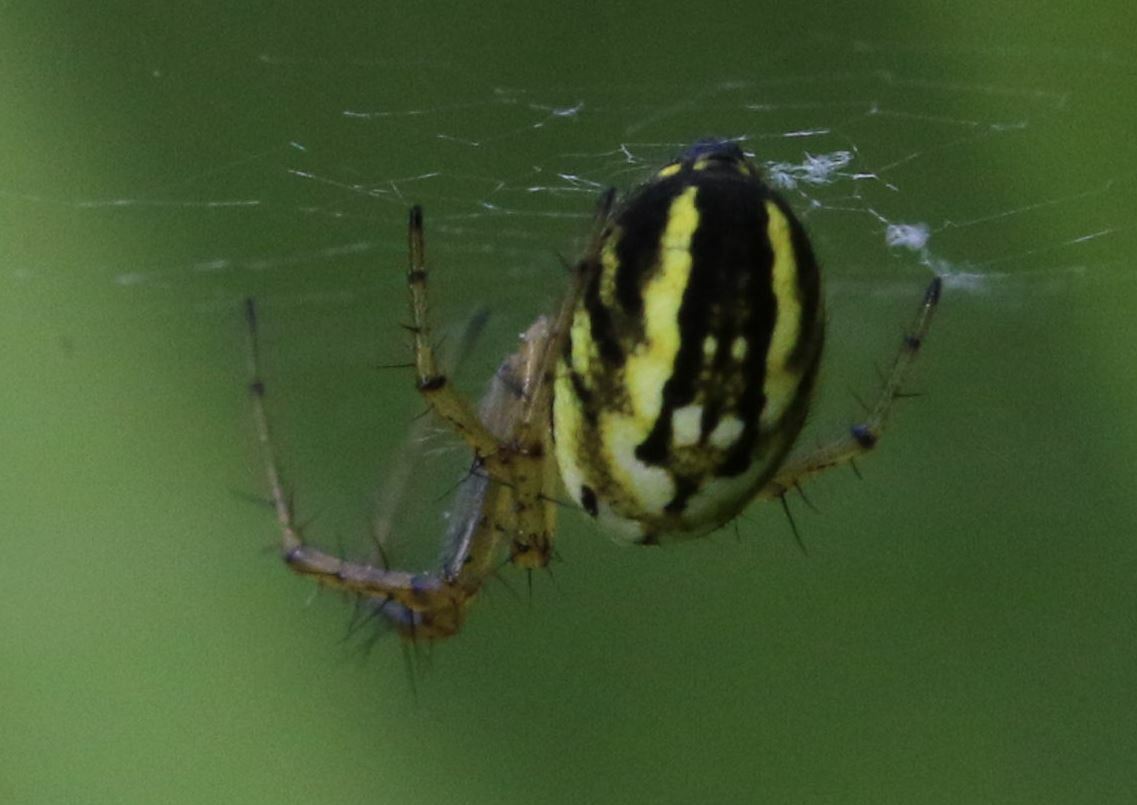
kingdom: Animalia
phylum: Arthropoda
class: Arachnida
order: Araneae
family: Araneidae
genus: Mangora
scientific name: Mangora acalypha
